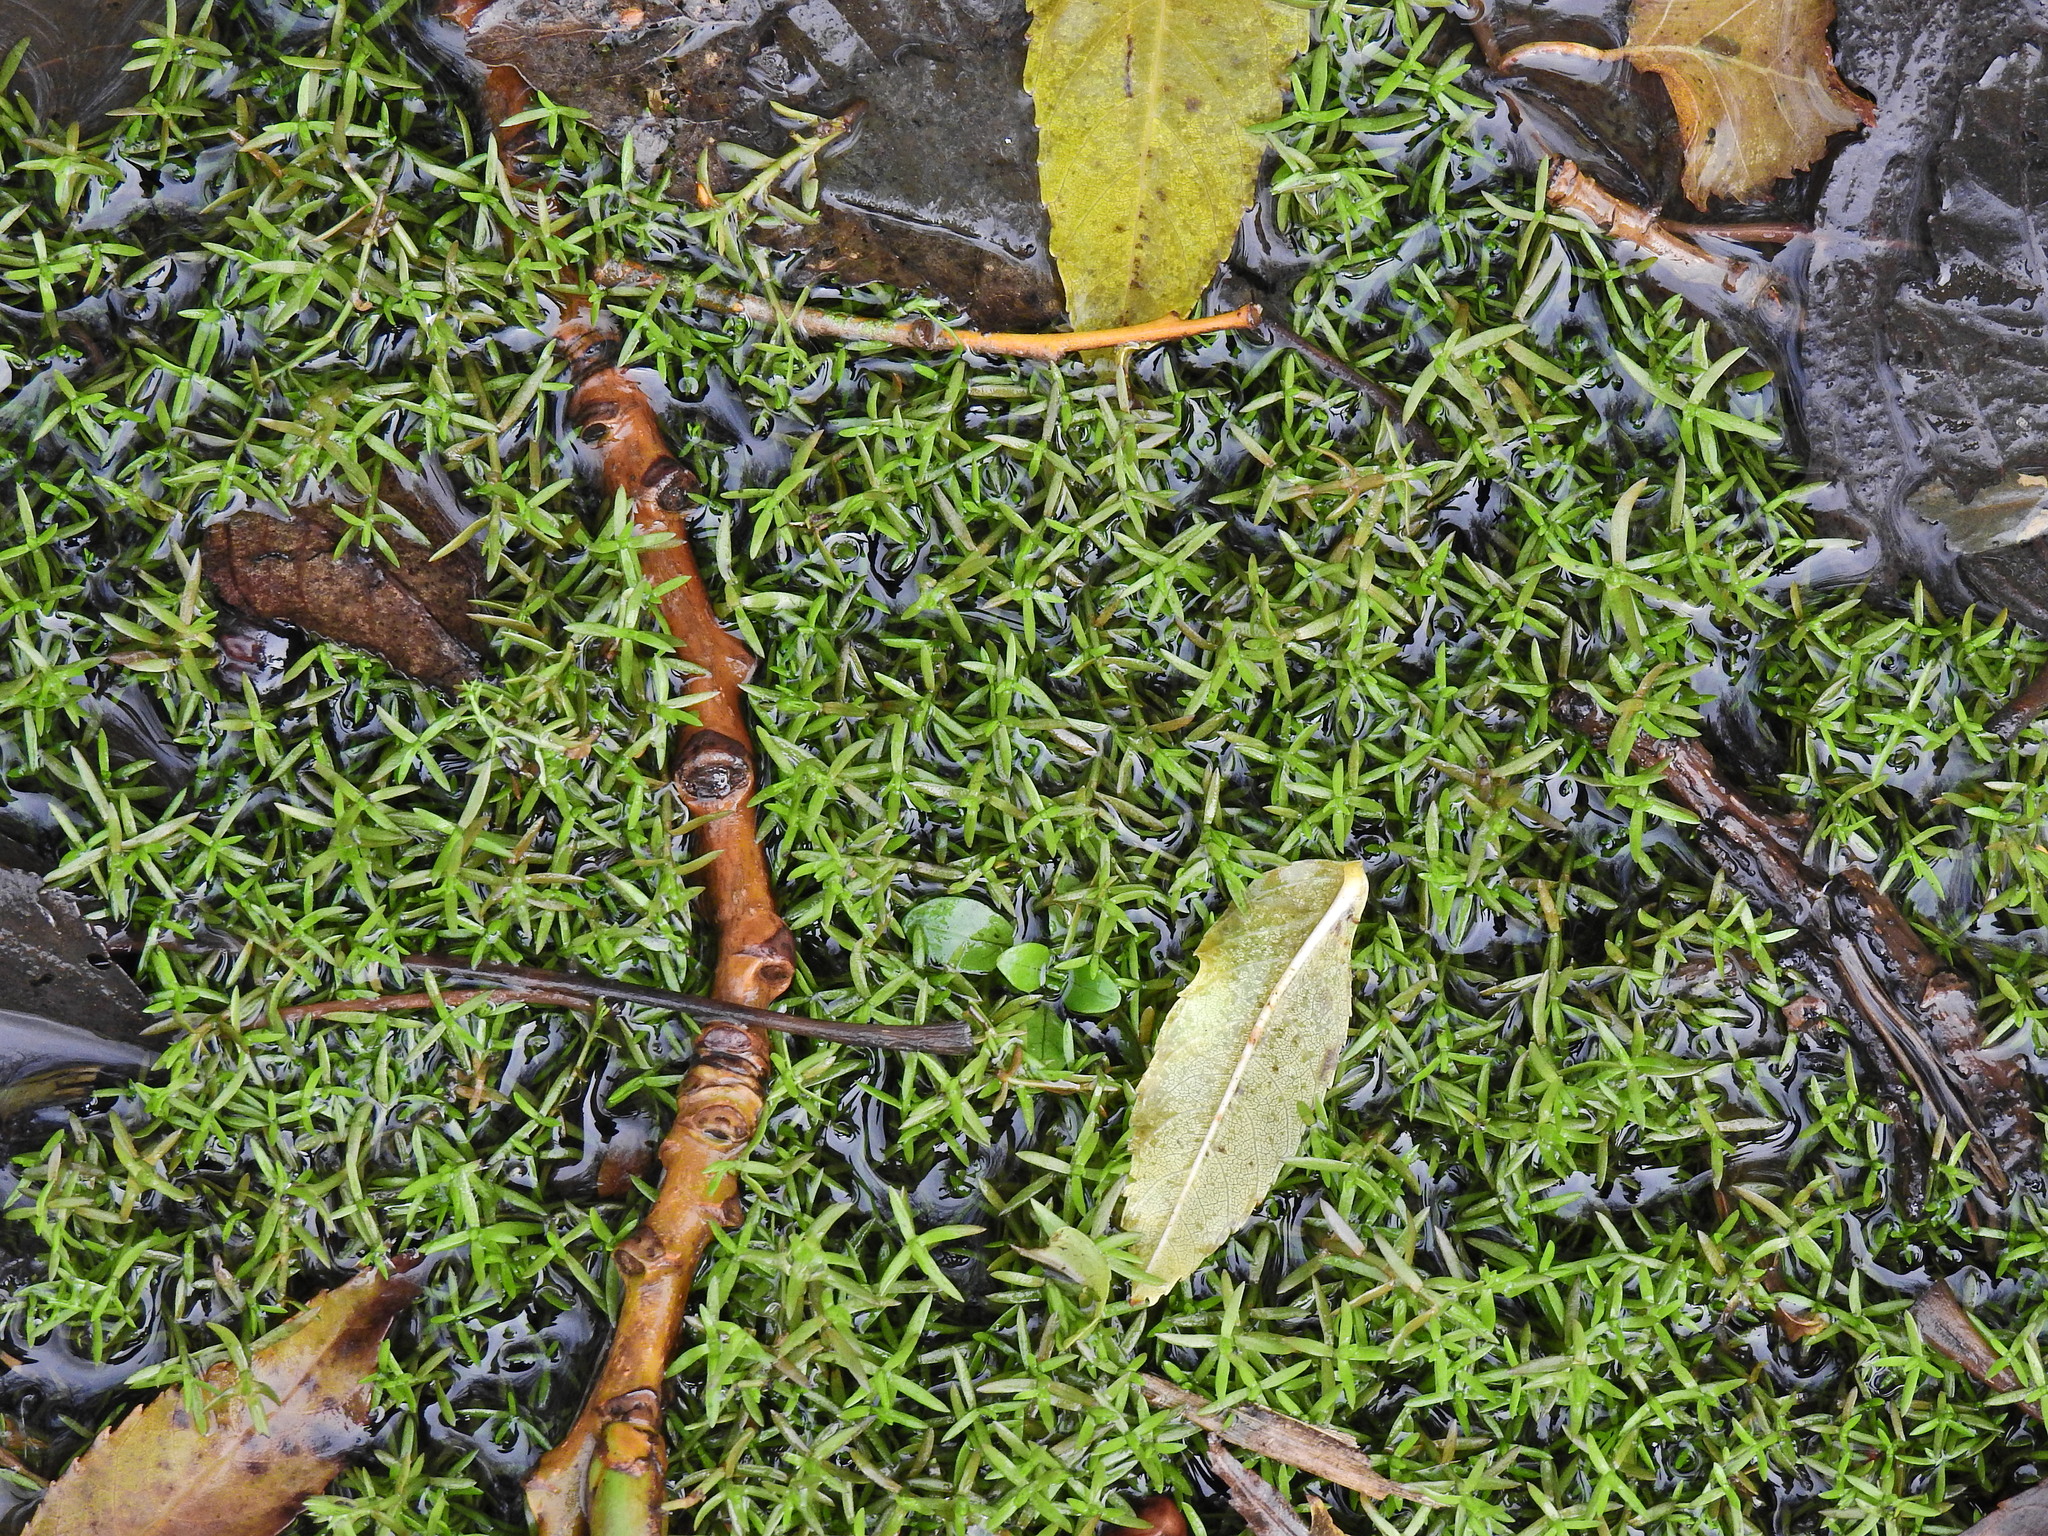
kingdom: Plantae
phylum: Tracheophyta
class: Magnoliopsida
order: Saxifragales
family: Crassulaceae
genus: Crassula
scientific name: Crassula helmsii
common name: New zealand pigmyweed
